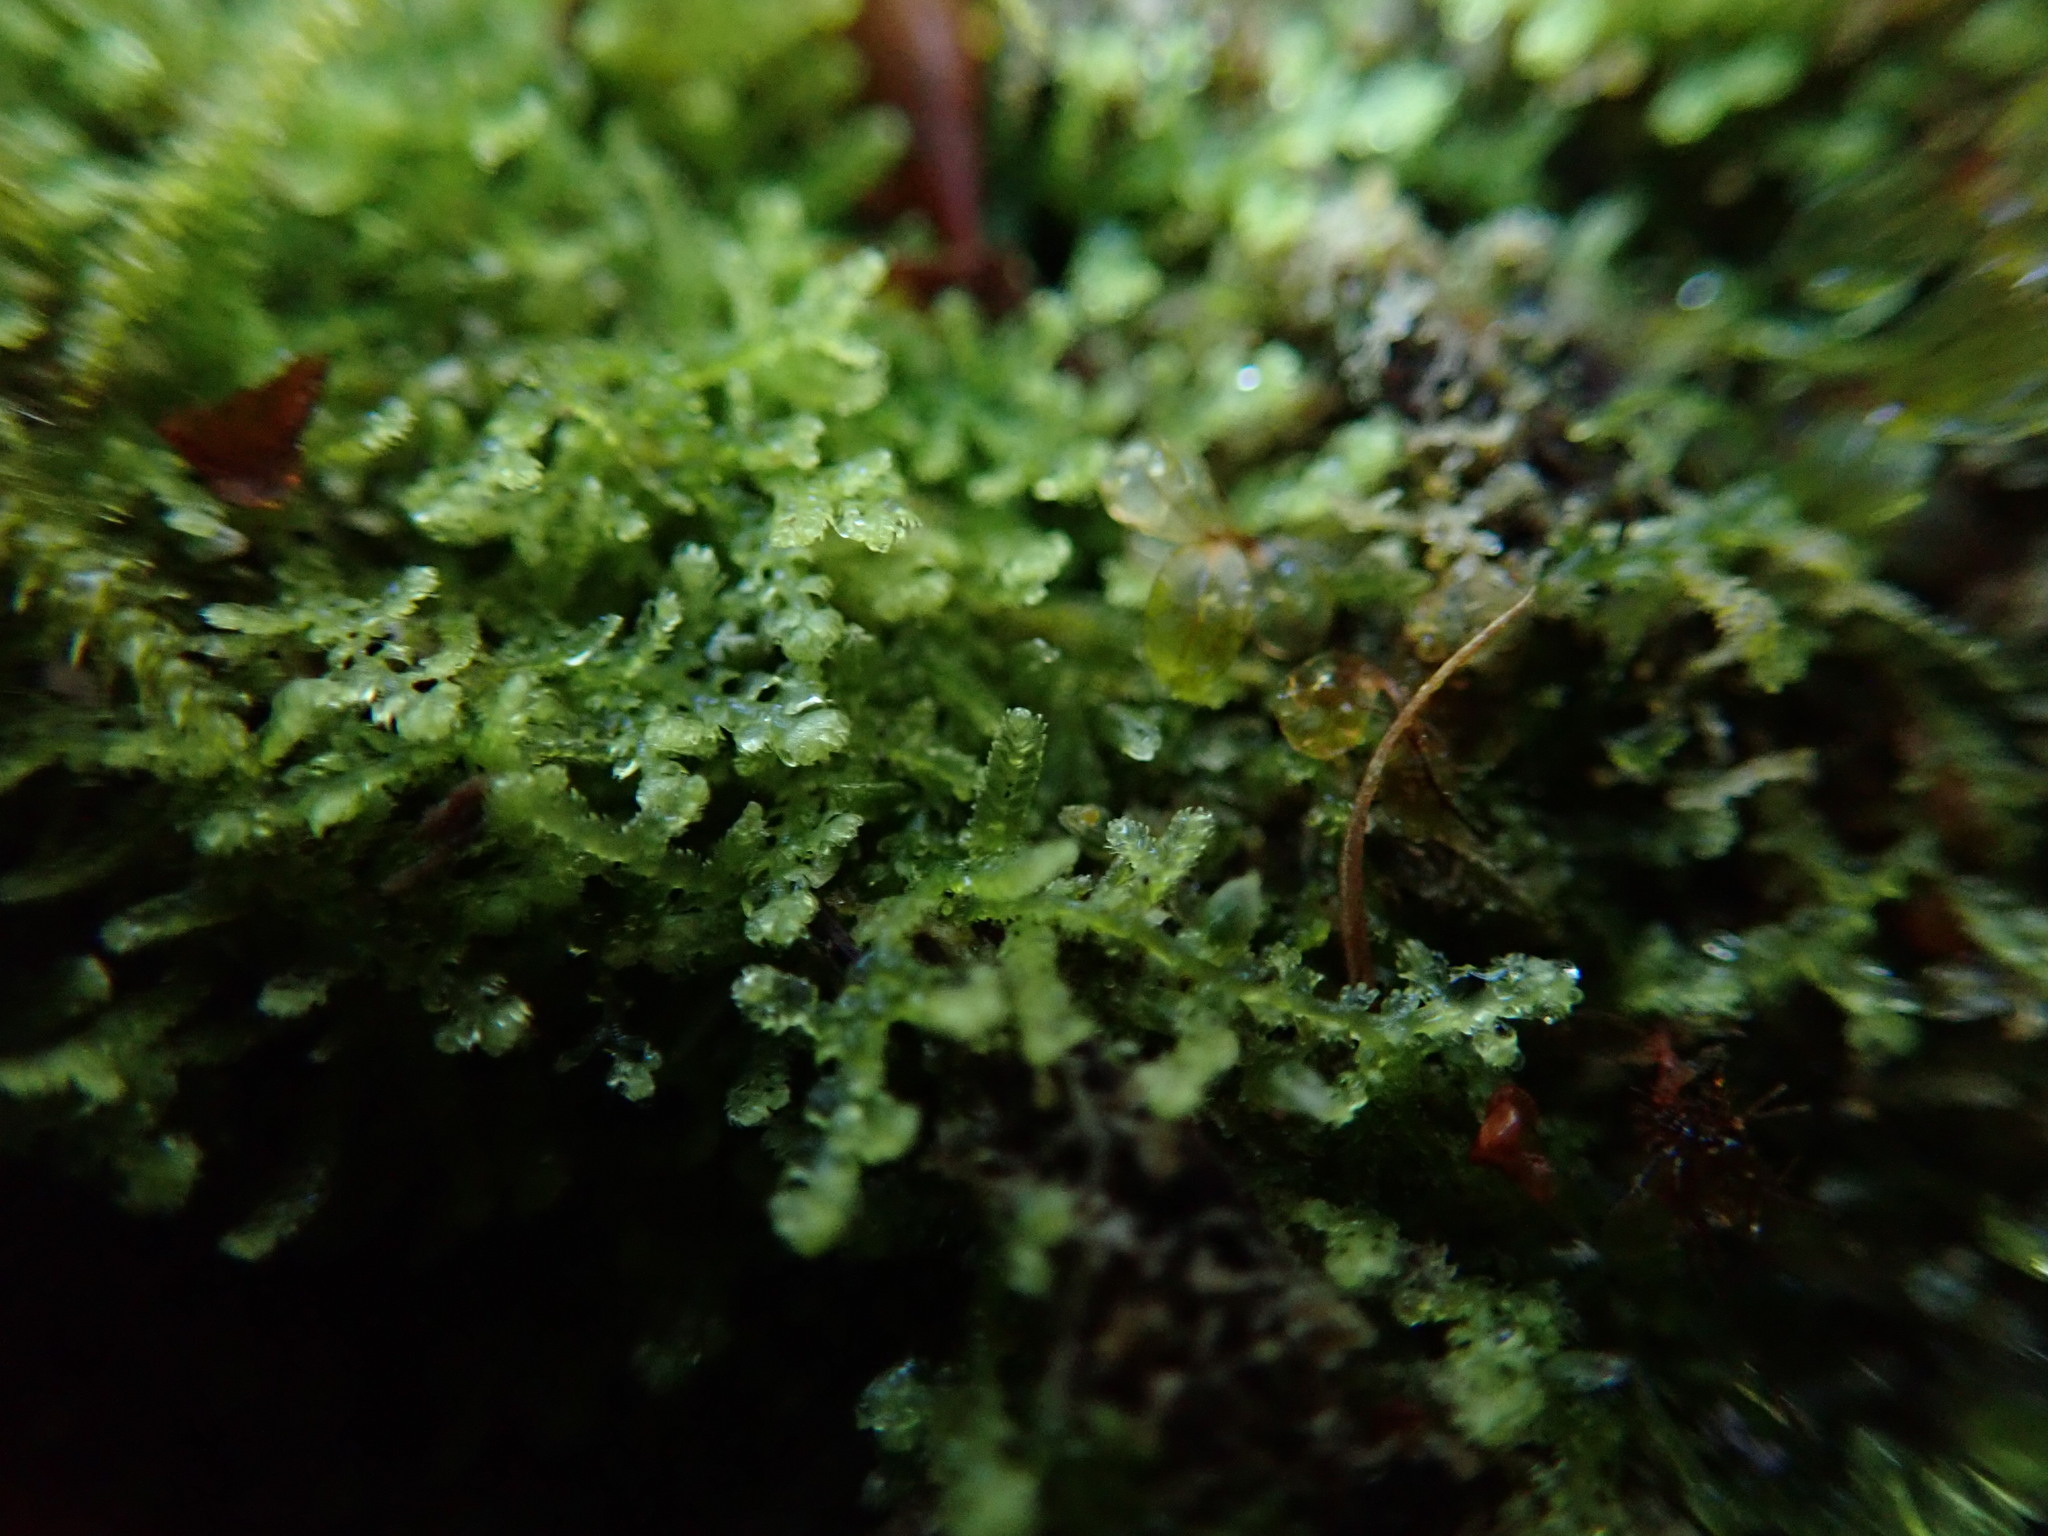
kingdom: Plantae
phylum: Marchantiophyta
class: Jungermanniopsida
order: Jungermanniales
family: Lepidoziaceae
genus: Lepidozia
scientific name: Lepidozia reptans
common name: Creeping fingerwort
